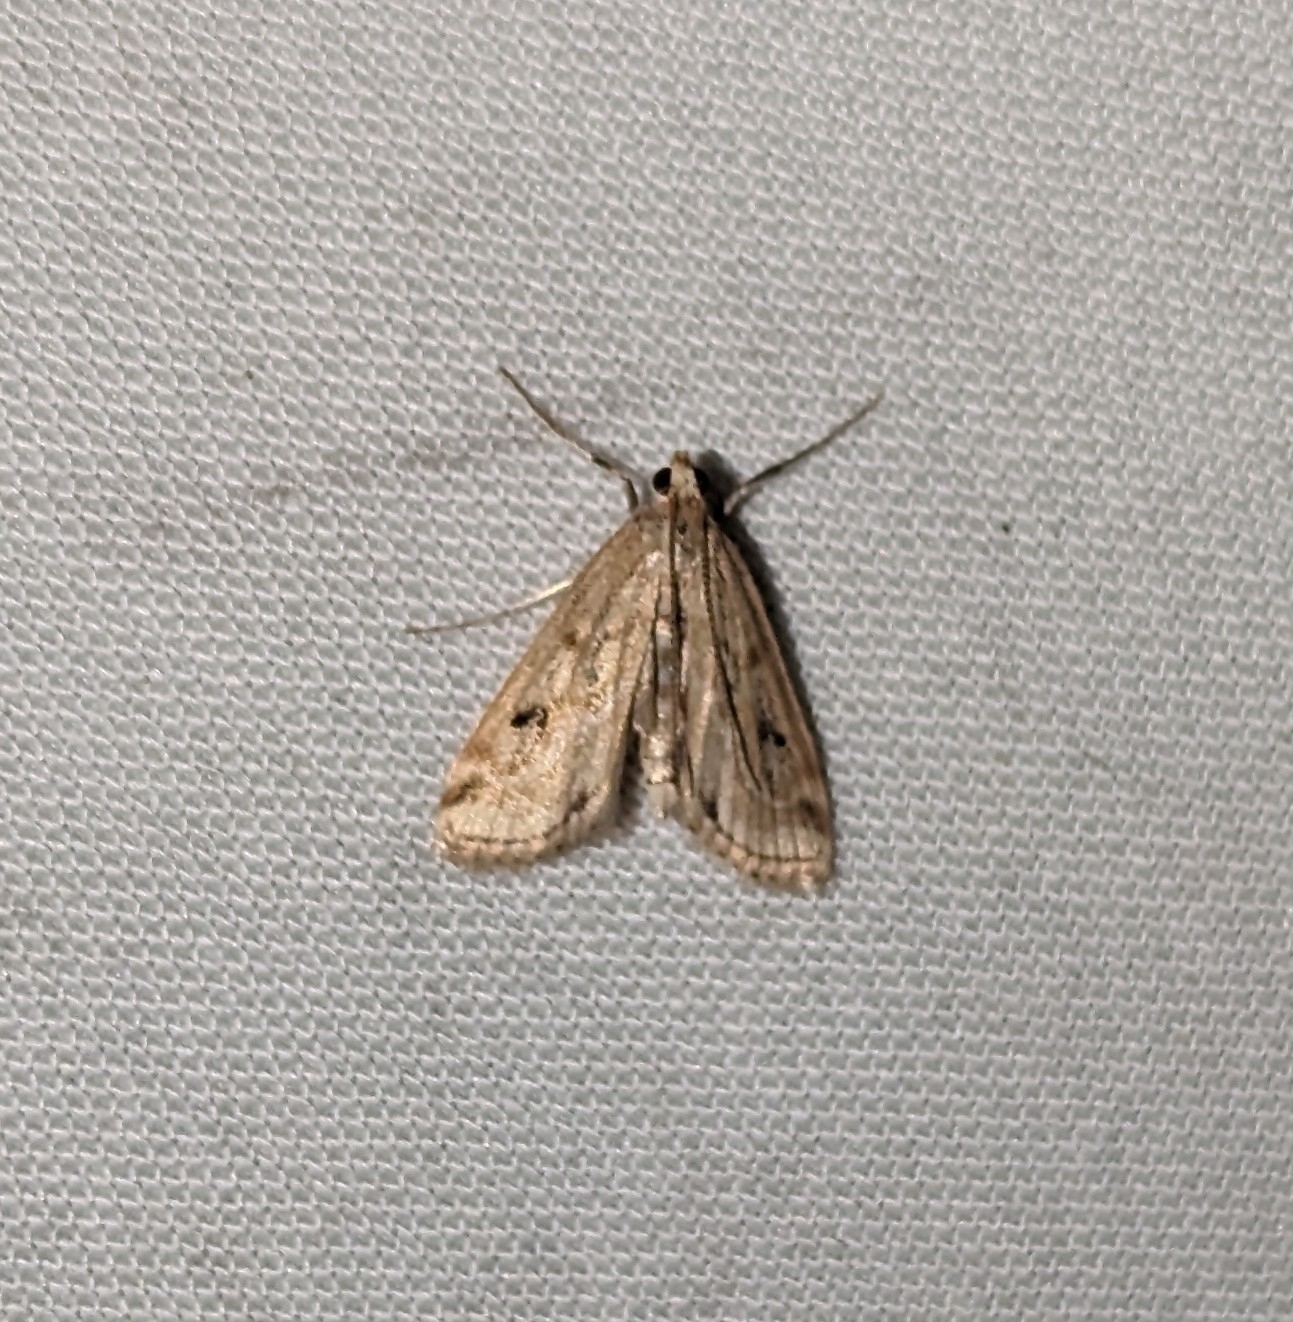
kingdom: Animalia
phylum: Arthropoda
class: Insecta
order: Lepidoptera
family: Crambidae
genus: Parapoynx
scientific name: Parapoynx allionealis
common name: Bladderwort casemaker
